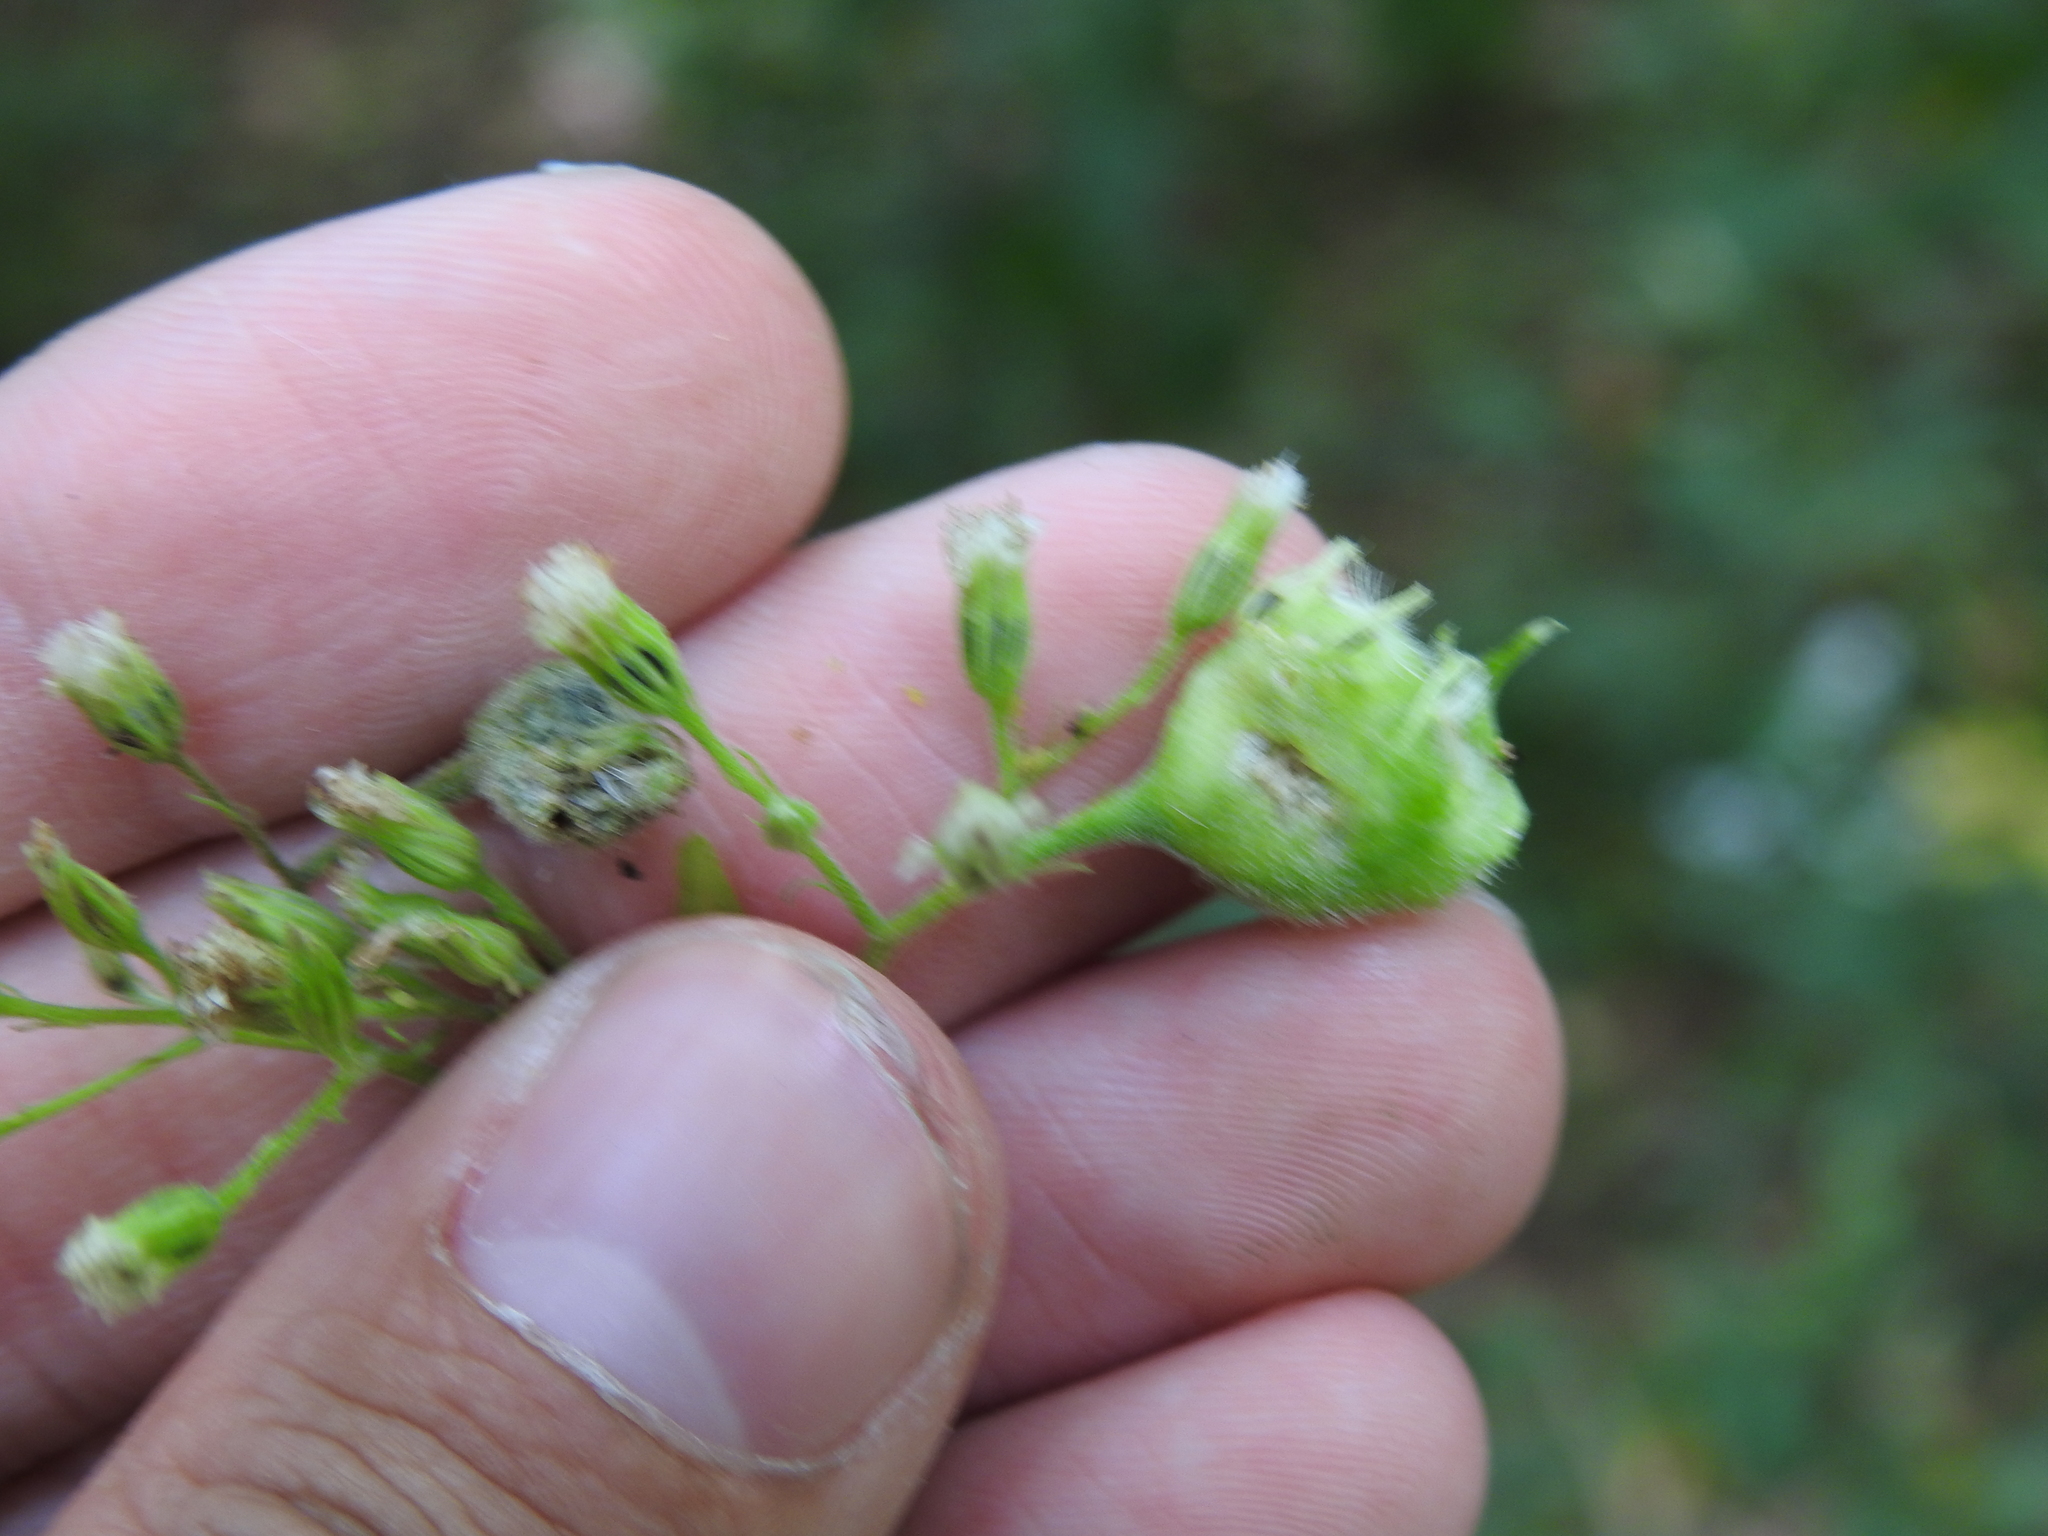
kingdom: Animalia
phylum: Arthropoda
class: Insecta
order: Diptera
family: Cecidomyiidae
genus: Schizomyia
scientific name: Schizomyia eupatoriflorae
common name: Boneset flower gall midge
